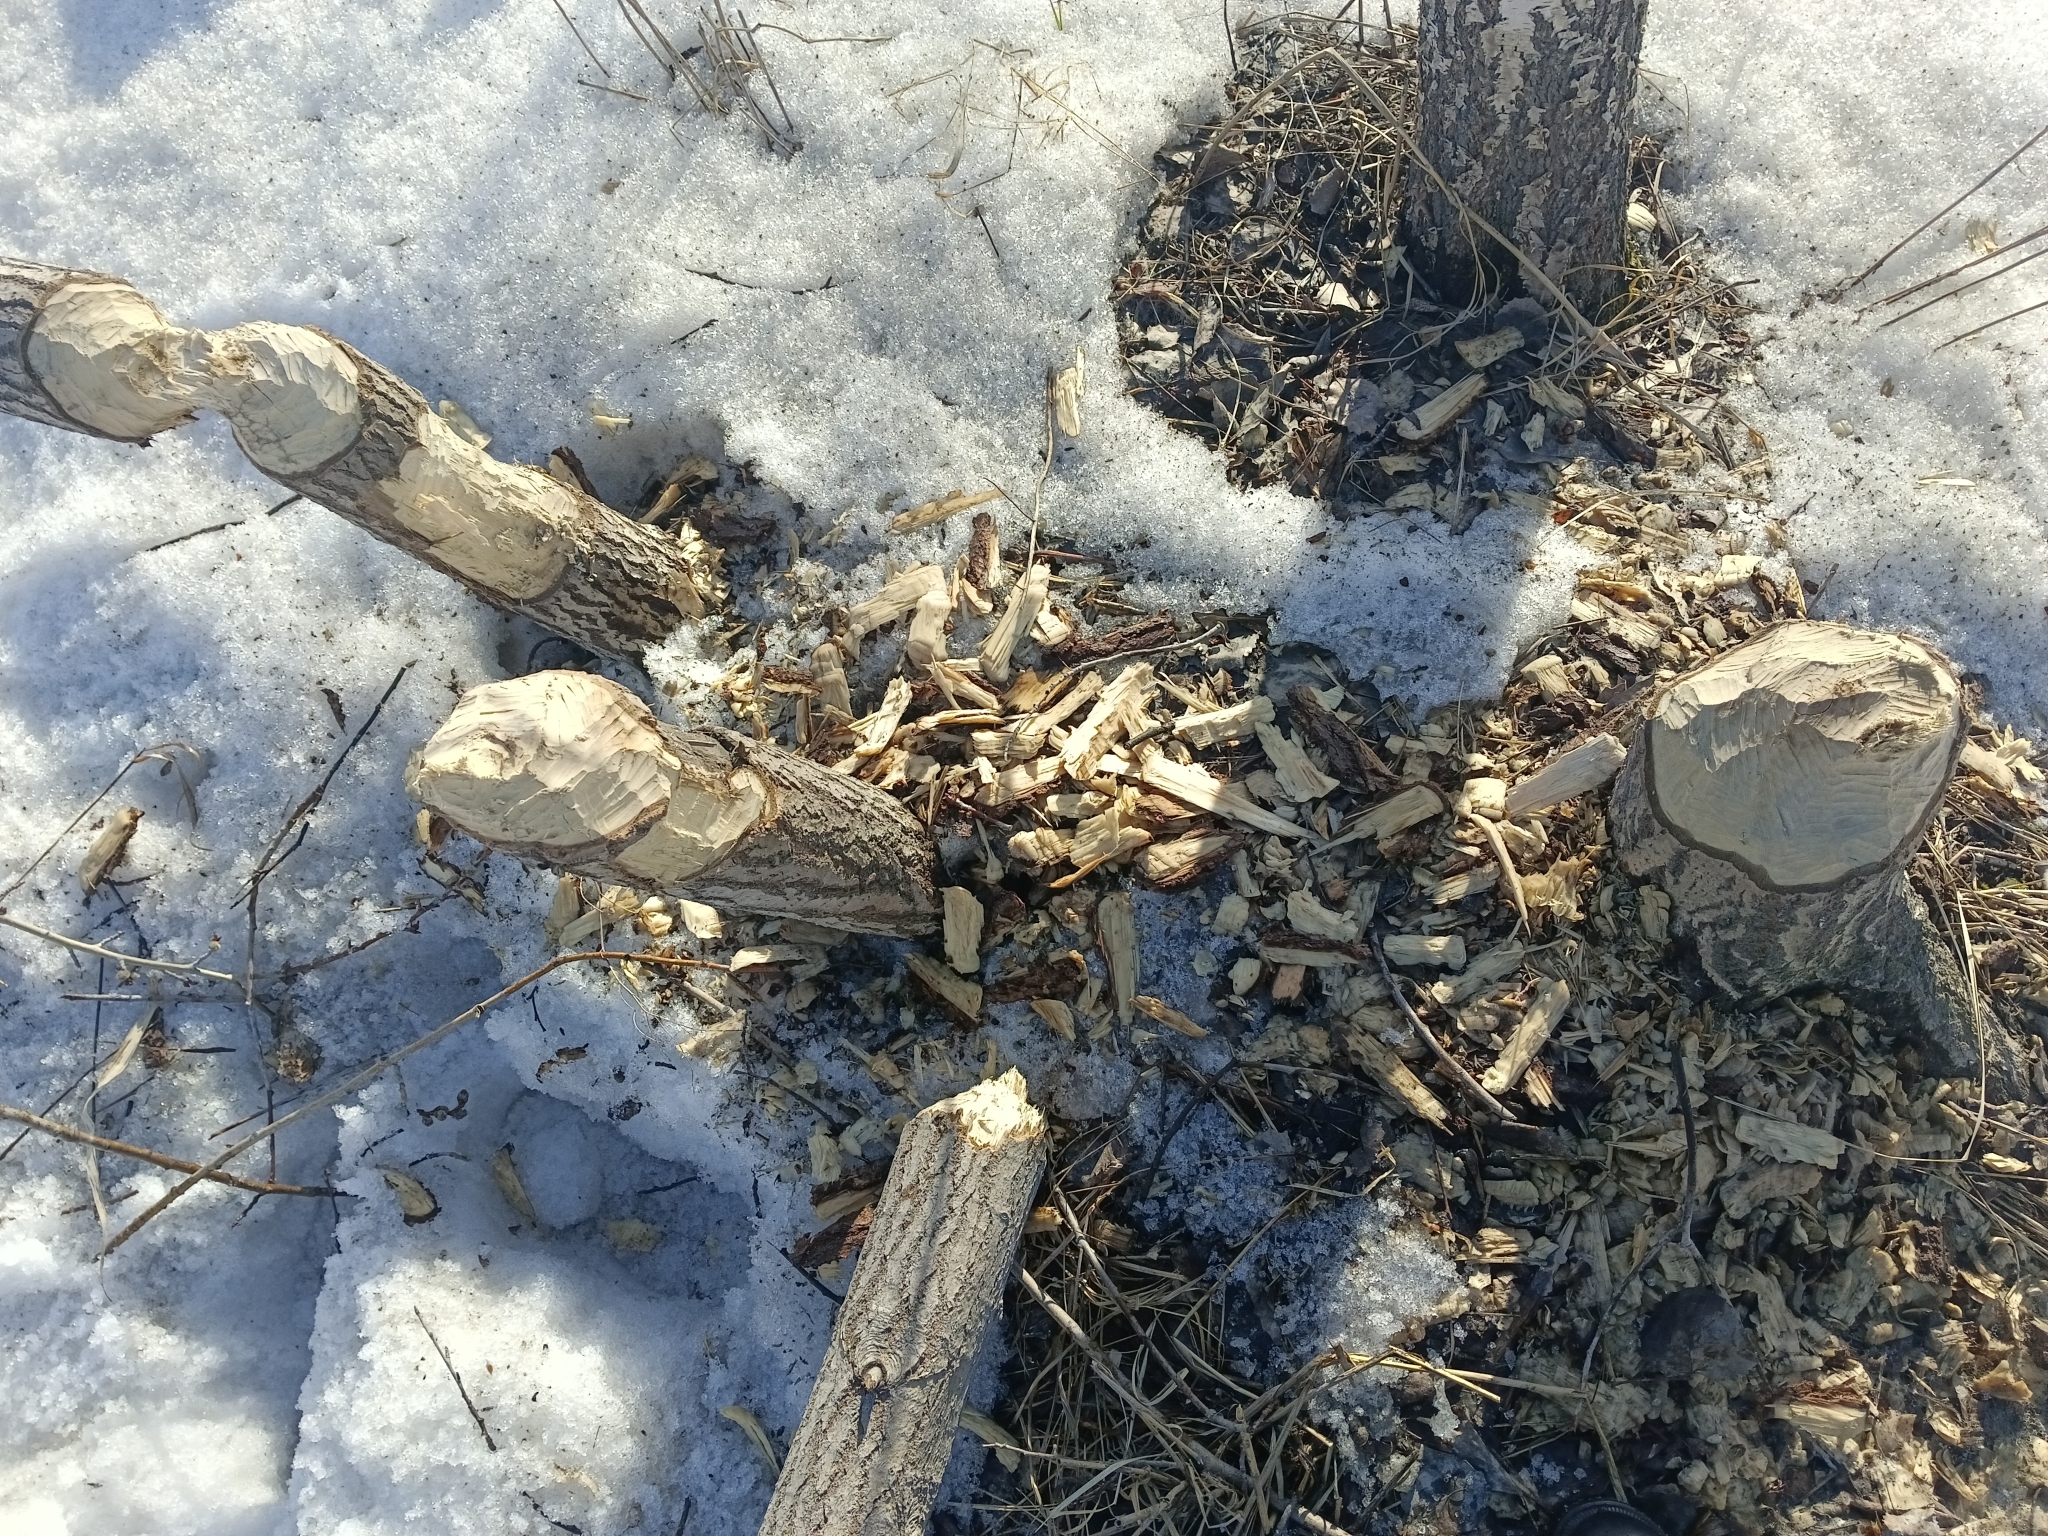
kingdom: Animalia
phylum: Chordata
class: Mammalia
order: Rodentia
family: Castoridae
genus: Castor
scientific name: Castor fiber
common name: Eurasian beaver
